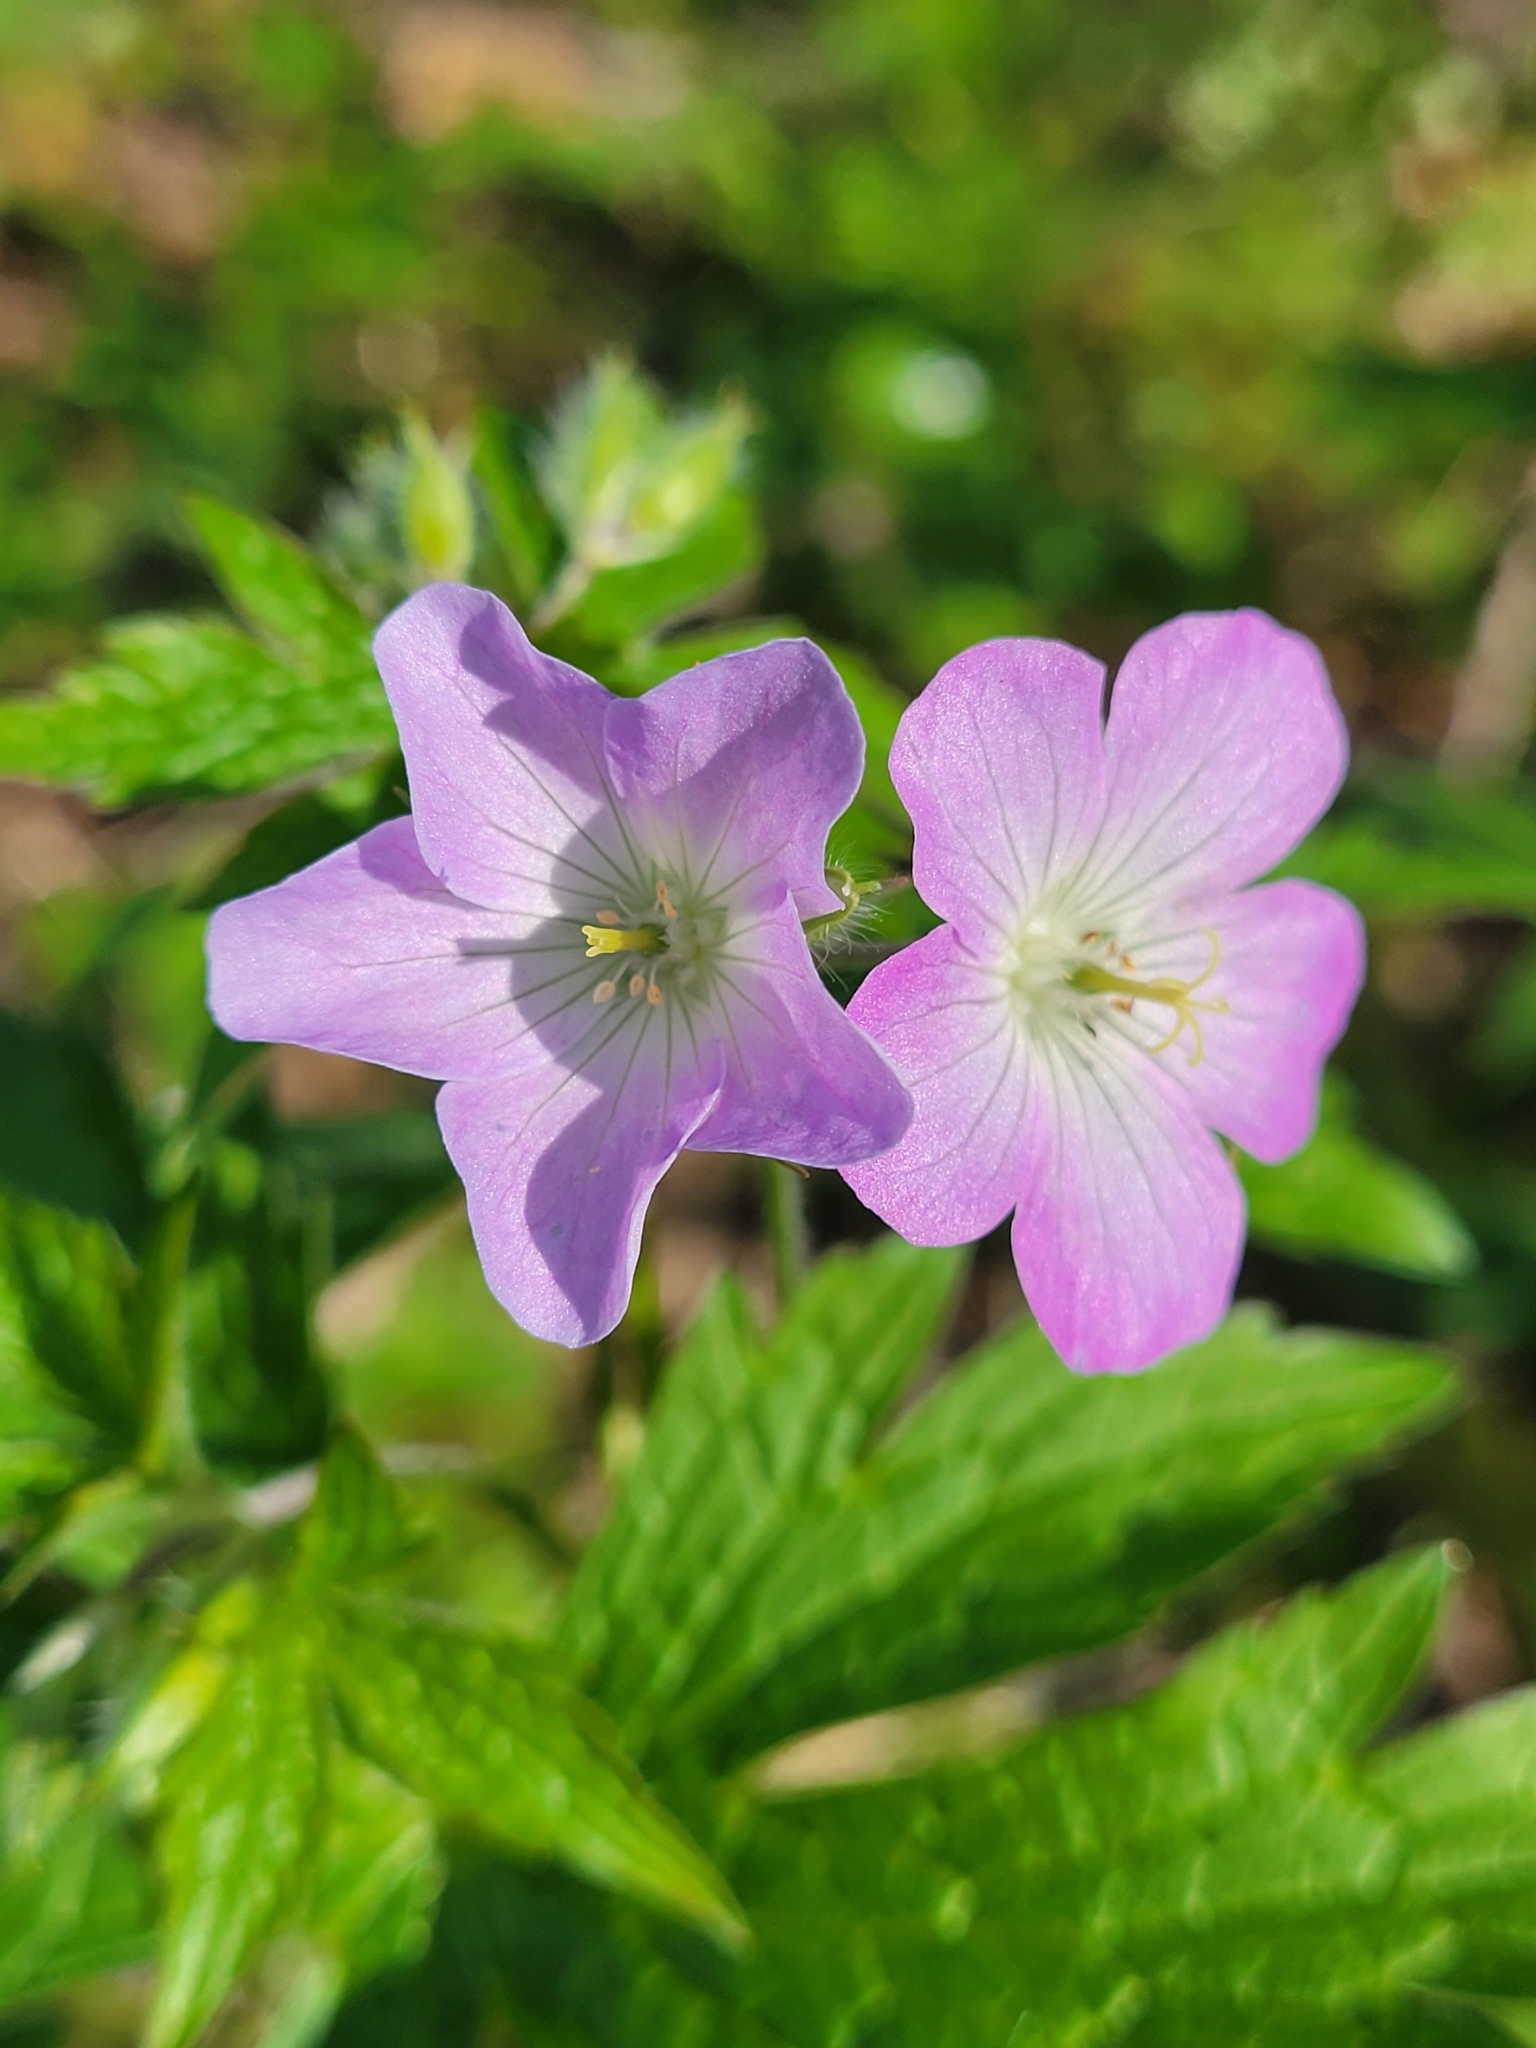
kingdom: Plantae
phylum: Tracheophyta
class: Magnoliopsida
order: Geraniales
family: Geraniaceae
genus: Geranium
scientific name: Geranium maculatum
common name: Spotted geranium
